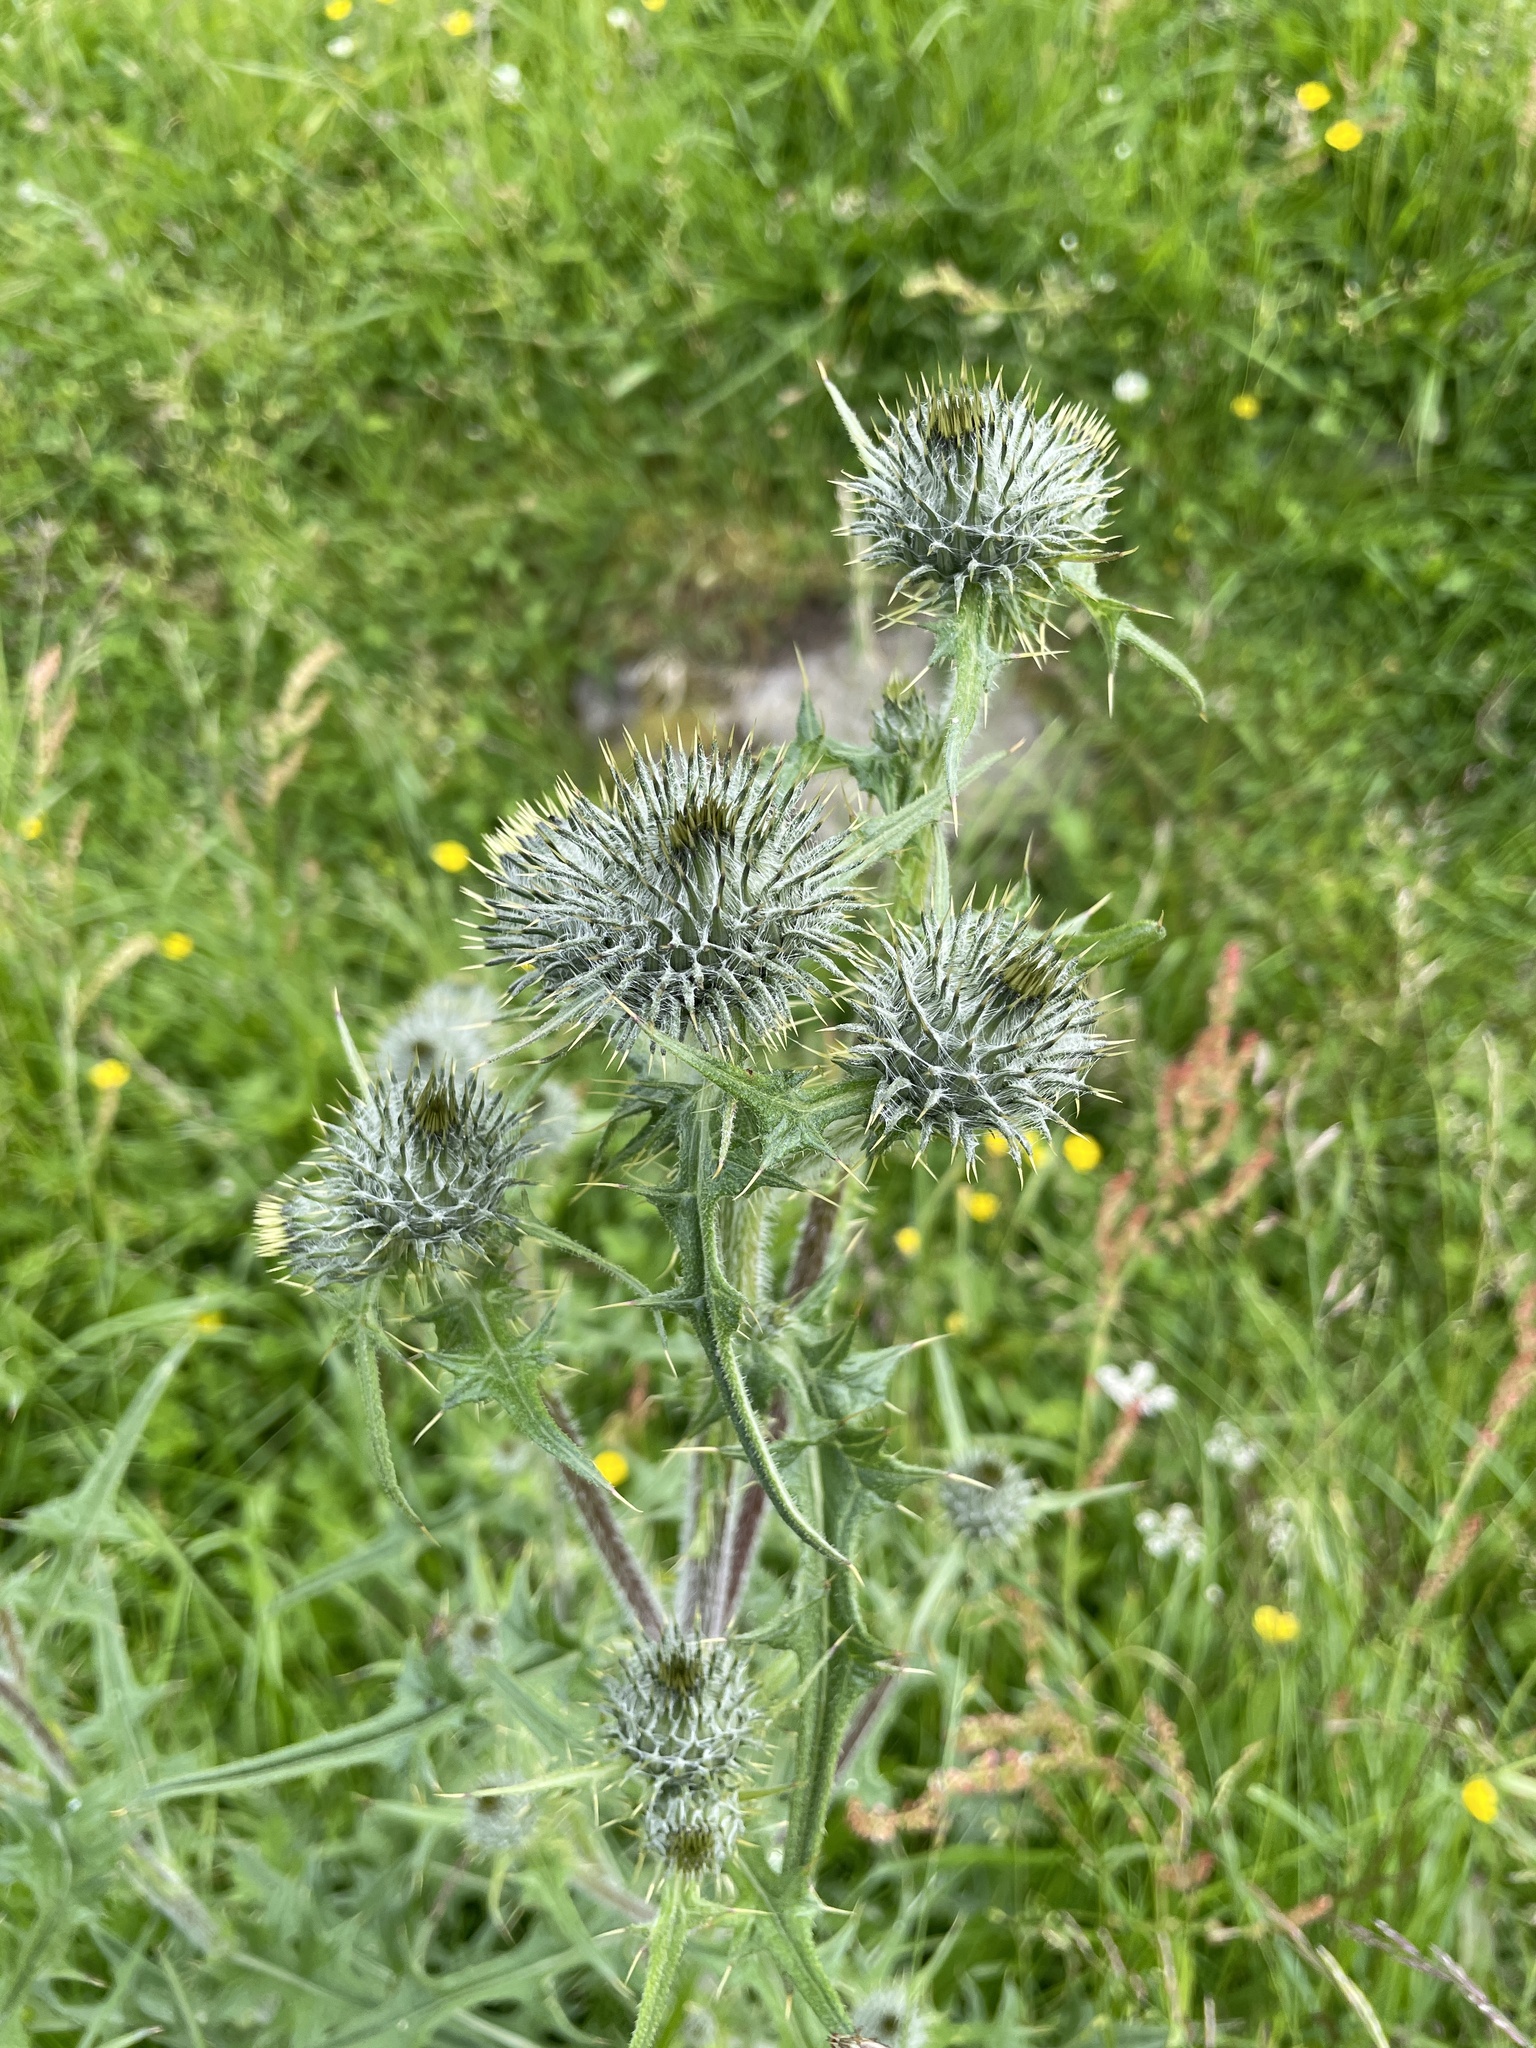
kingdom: Plantae
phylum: Tracheophyta
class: Magnoliopsida
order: Asterales
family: Asteraceae
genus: Cirsium
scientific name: Cirsium vulgare
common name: Bull thistle
